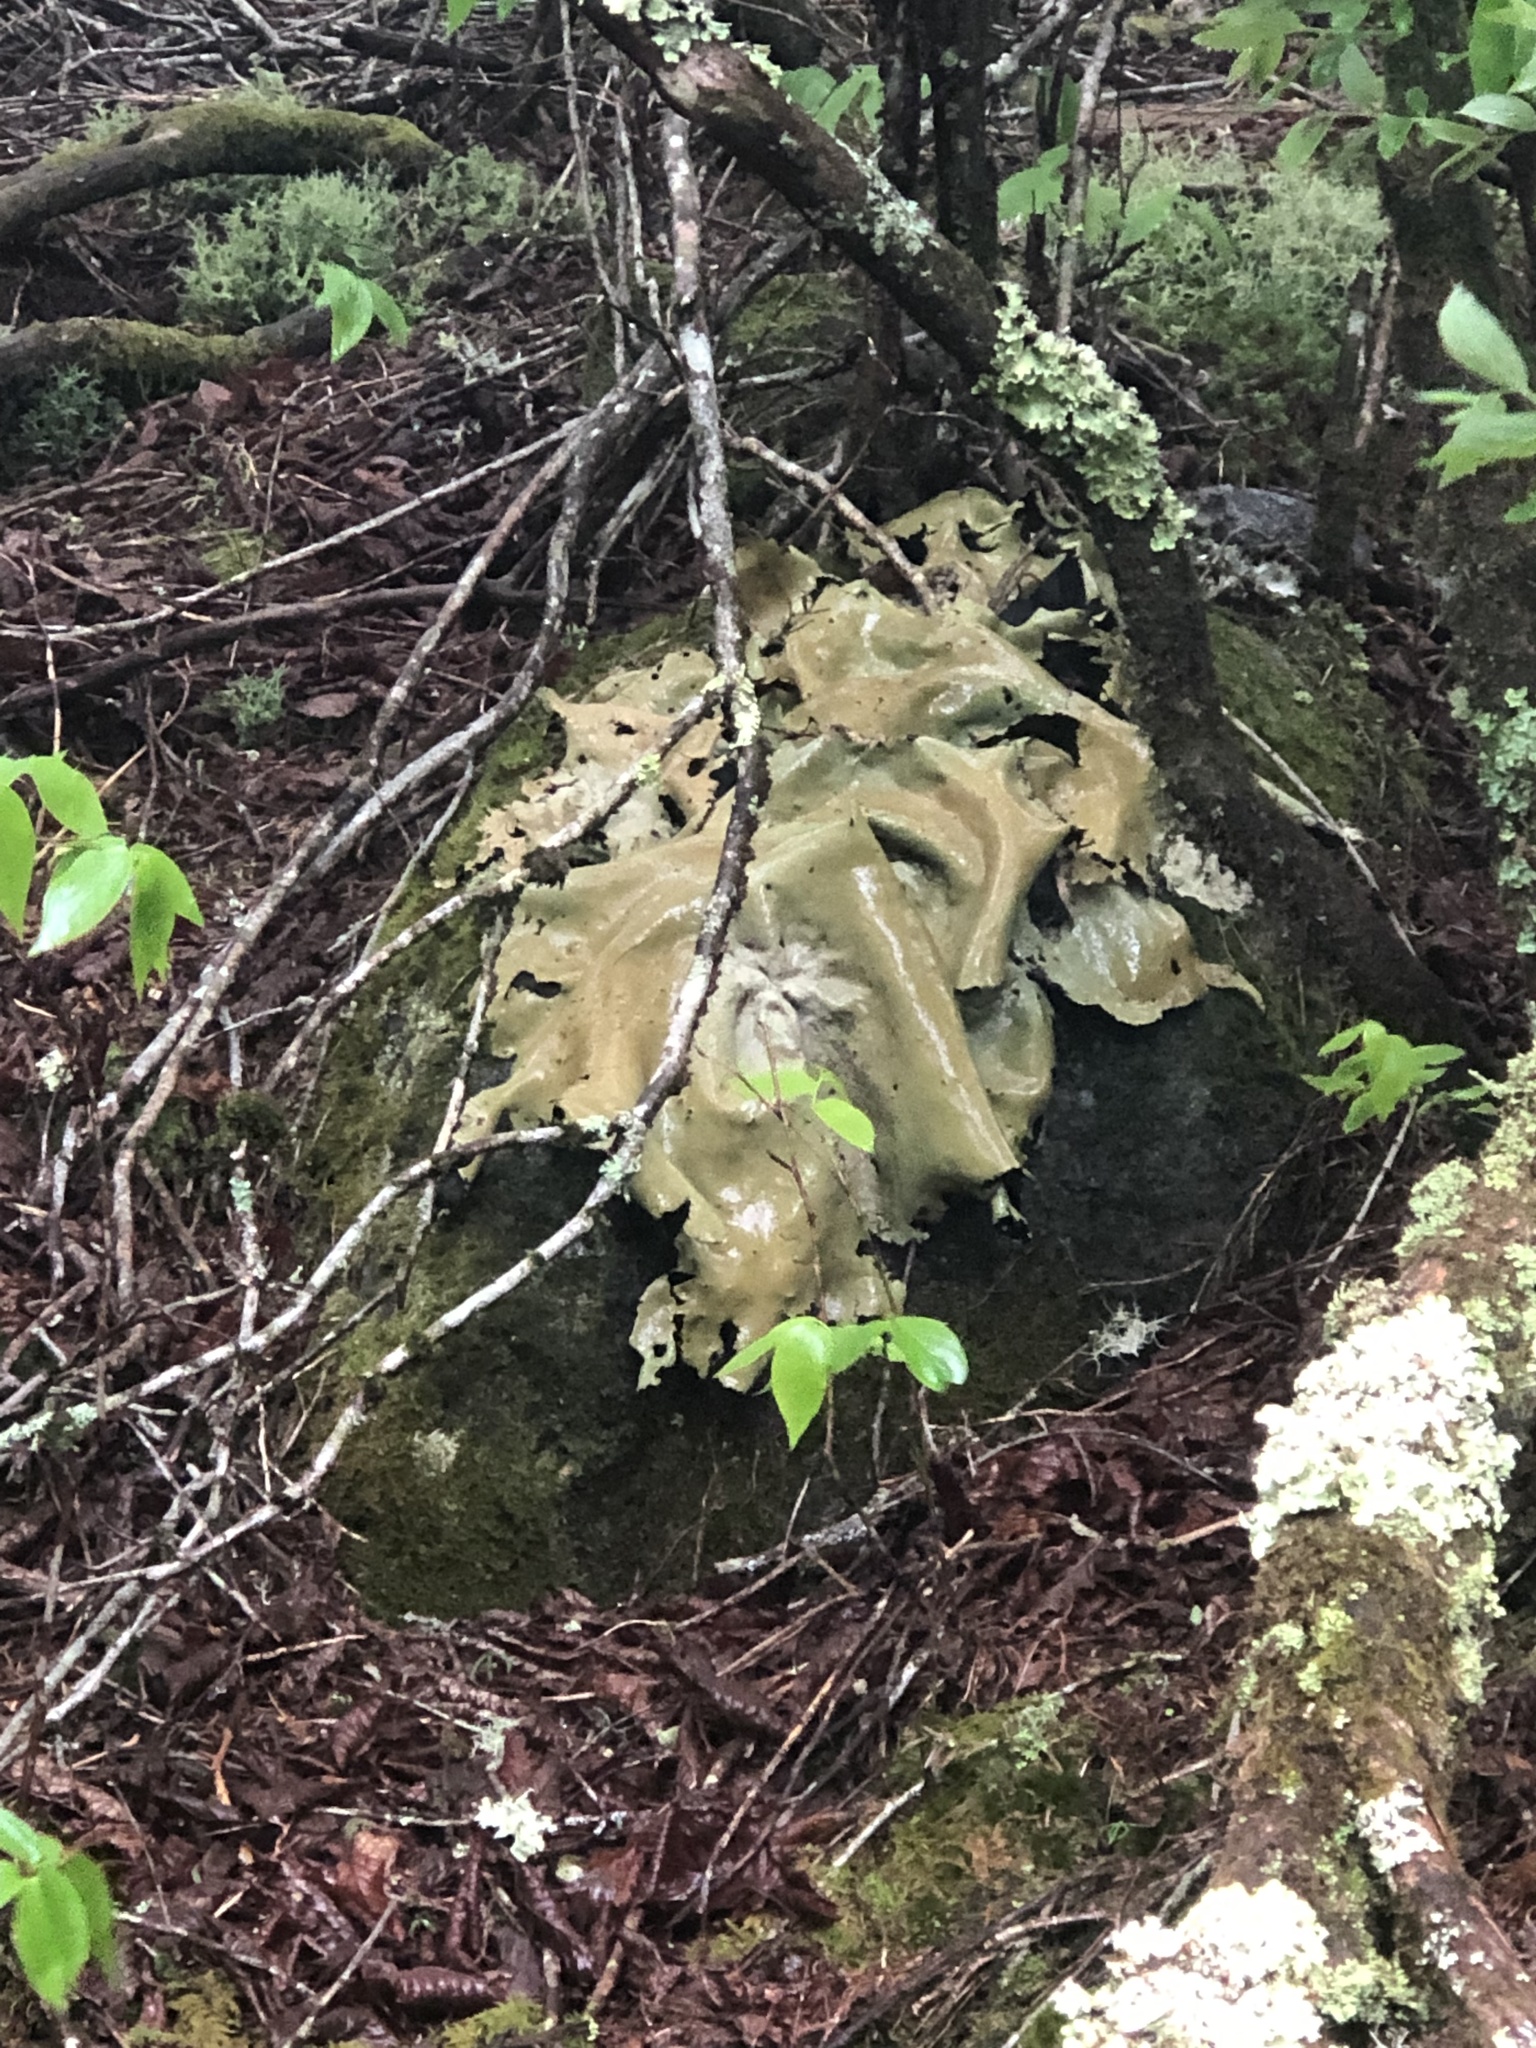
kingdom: Fungi
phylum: Ascomycota
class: Lecanoromycetes
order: Umbilicariales
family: Umbilicariaceae
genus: Umbilicaria
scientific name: Umbilicaria mammulata
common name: Smooth rock tripe
